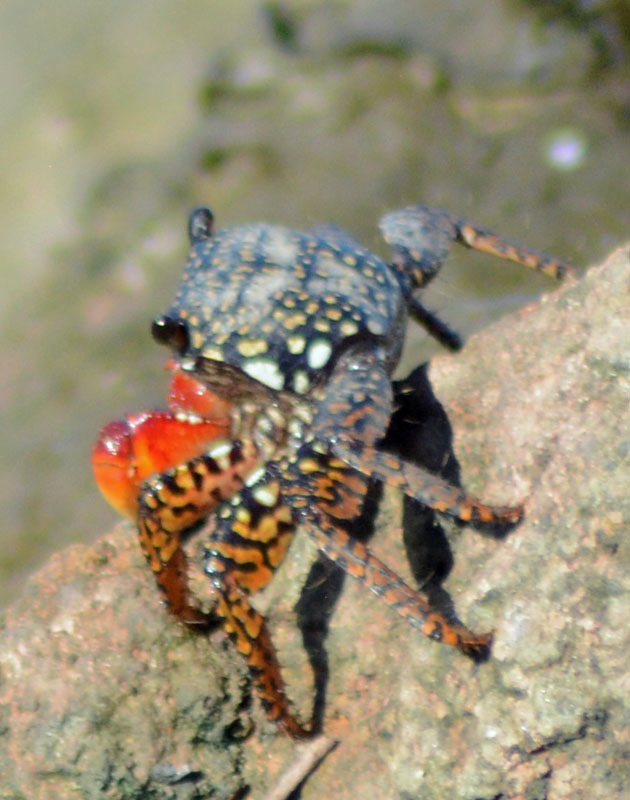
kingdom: Animalia
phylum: Arthropoda
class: Malacostraca
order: Decapoda
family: Grapsidae
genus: Goniopsis
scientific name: Goniopsis pulchra
